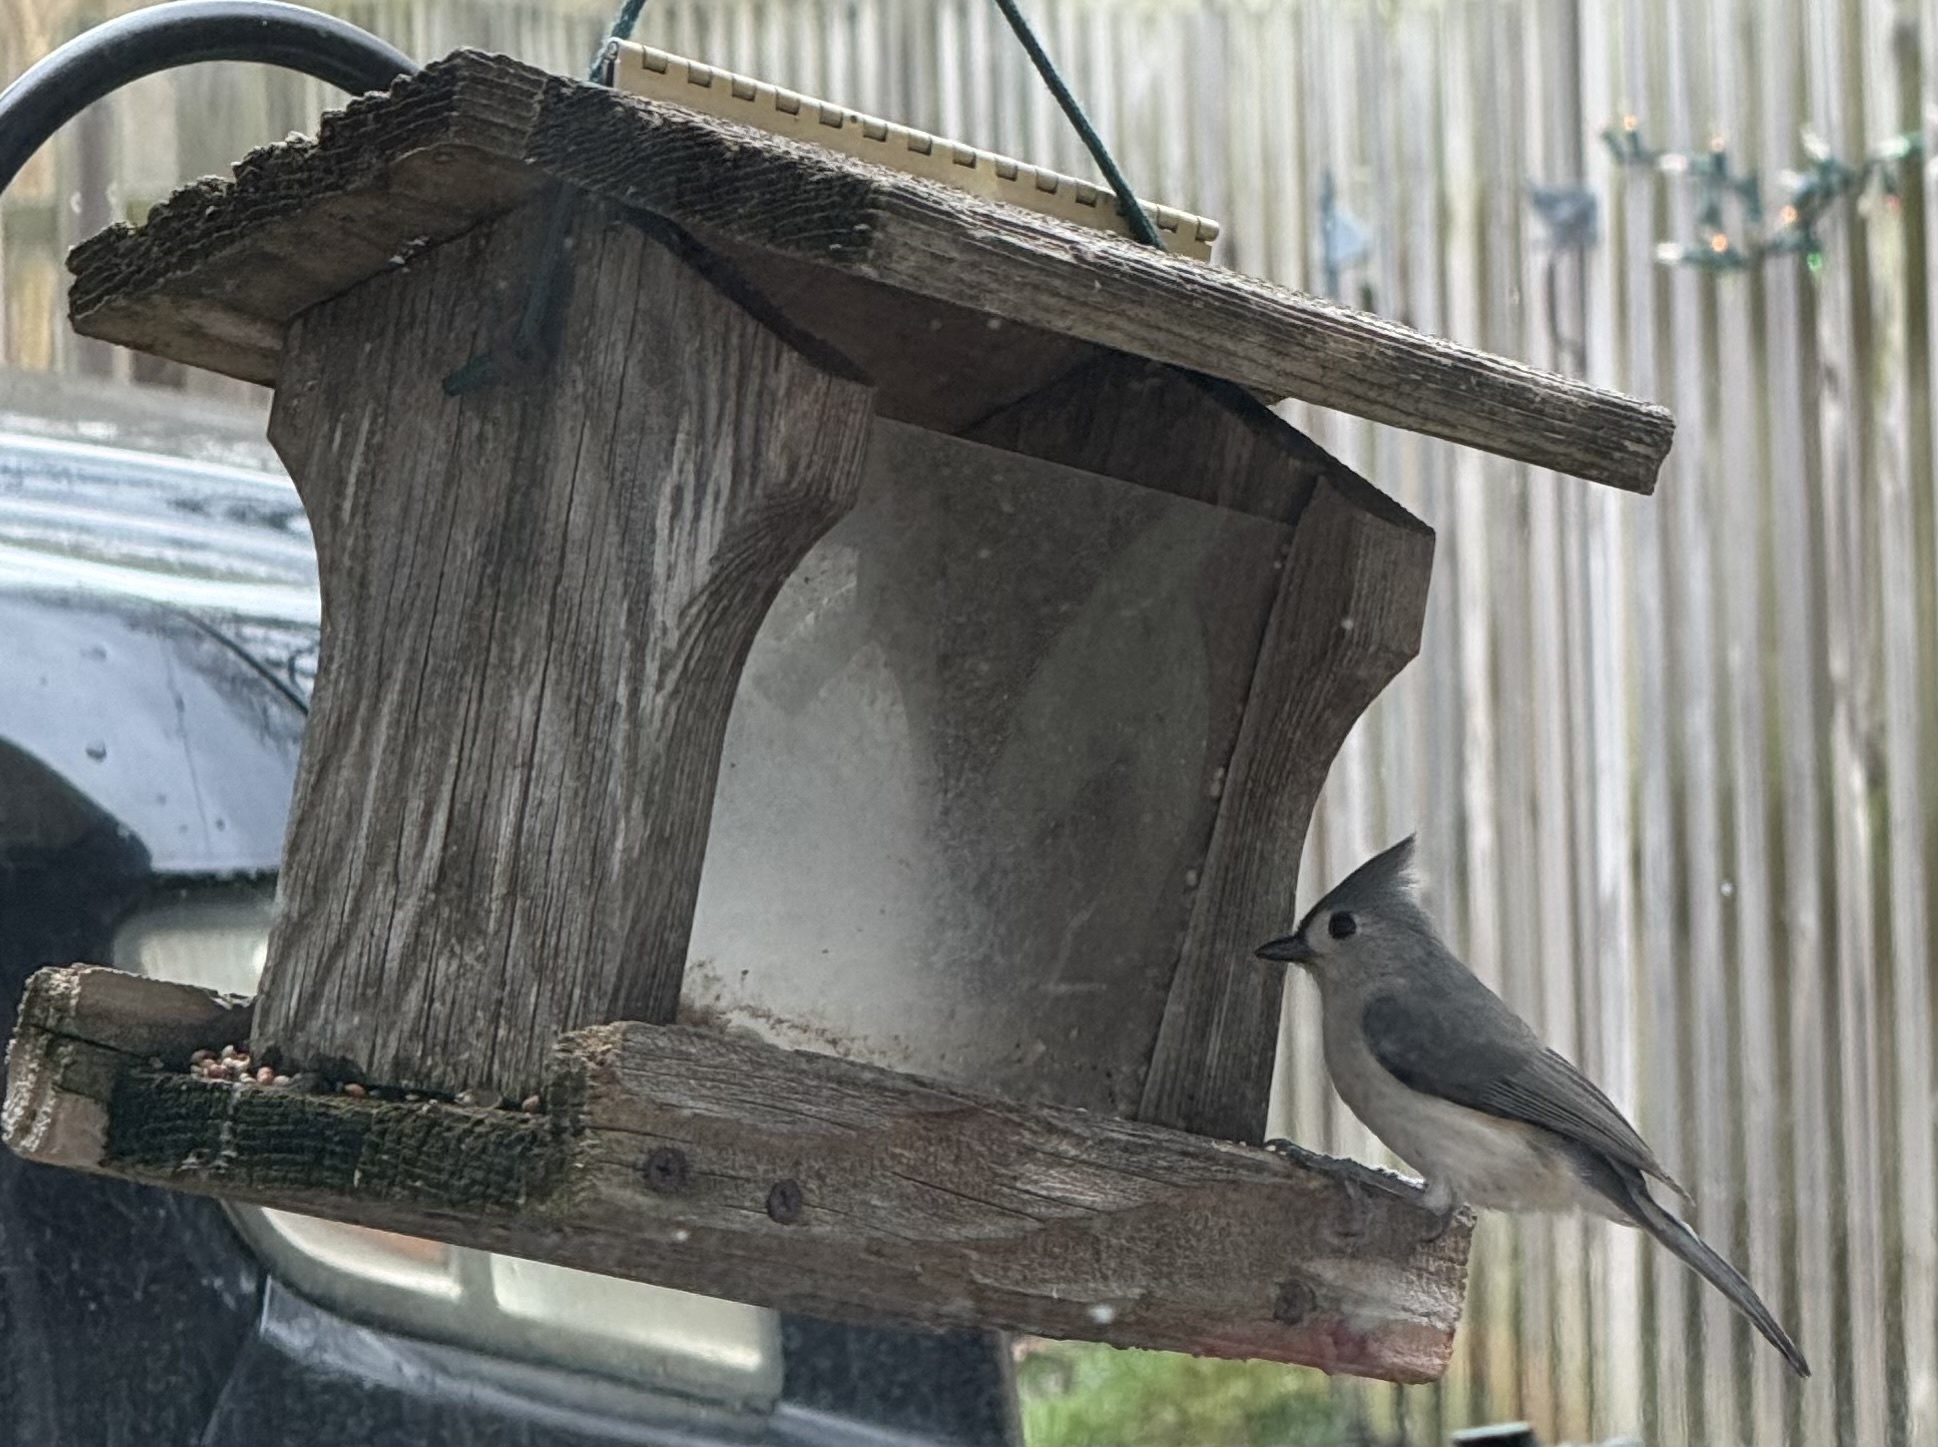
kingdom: Animalia
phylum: Chordata
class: Aves
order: Passeriformes
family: Paridae
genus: Baeolophus
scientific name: Baeolophus bicolor
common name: Tufted titmouse
